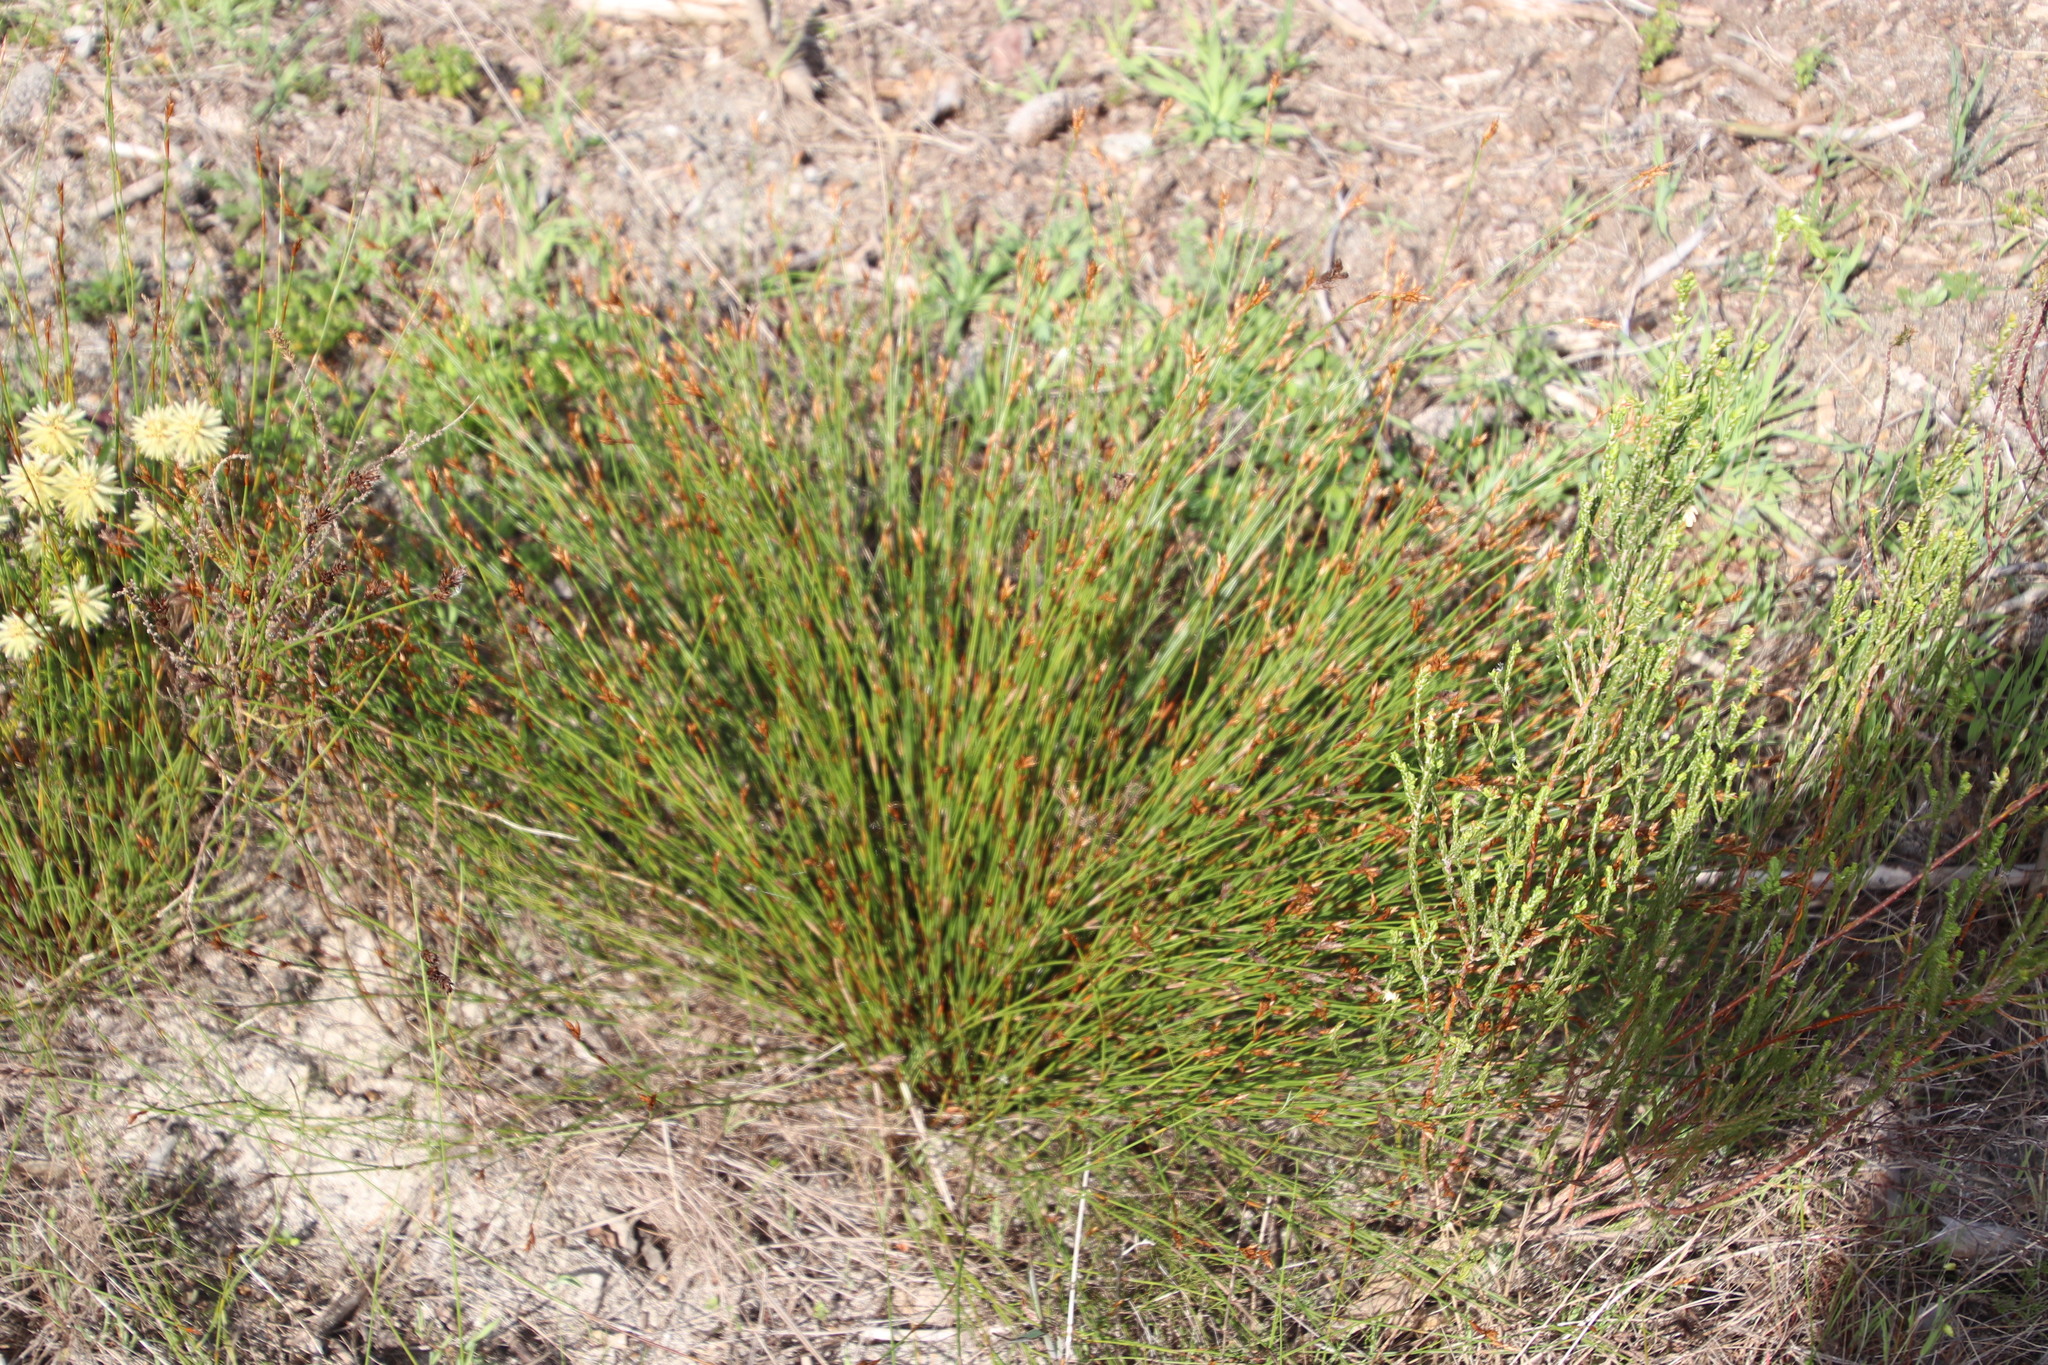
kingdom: Plantae
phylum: Tracheophyta
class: Liliopsida
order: Poales
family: Restionaceae
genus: Restio
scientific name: Restio capensis
